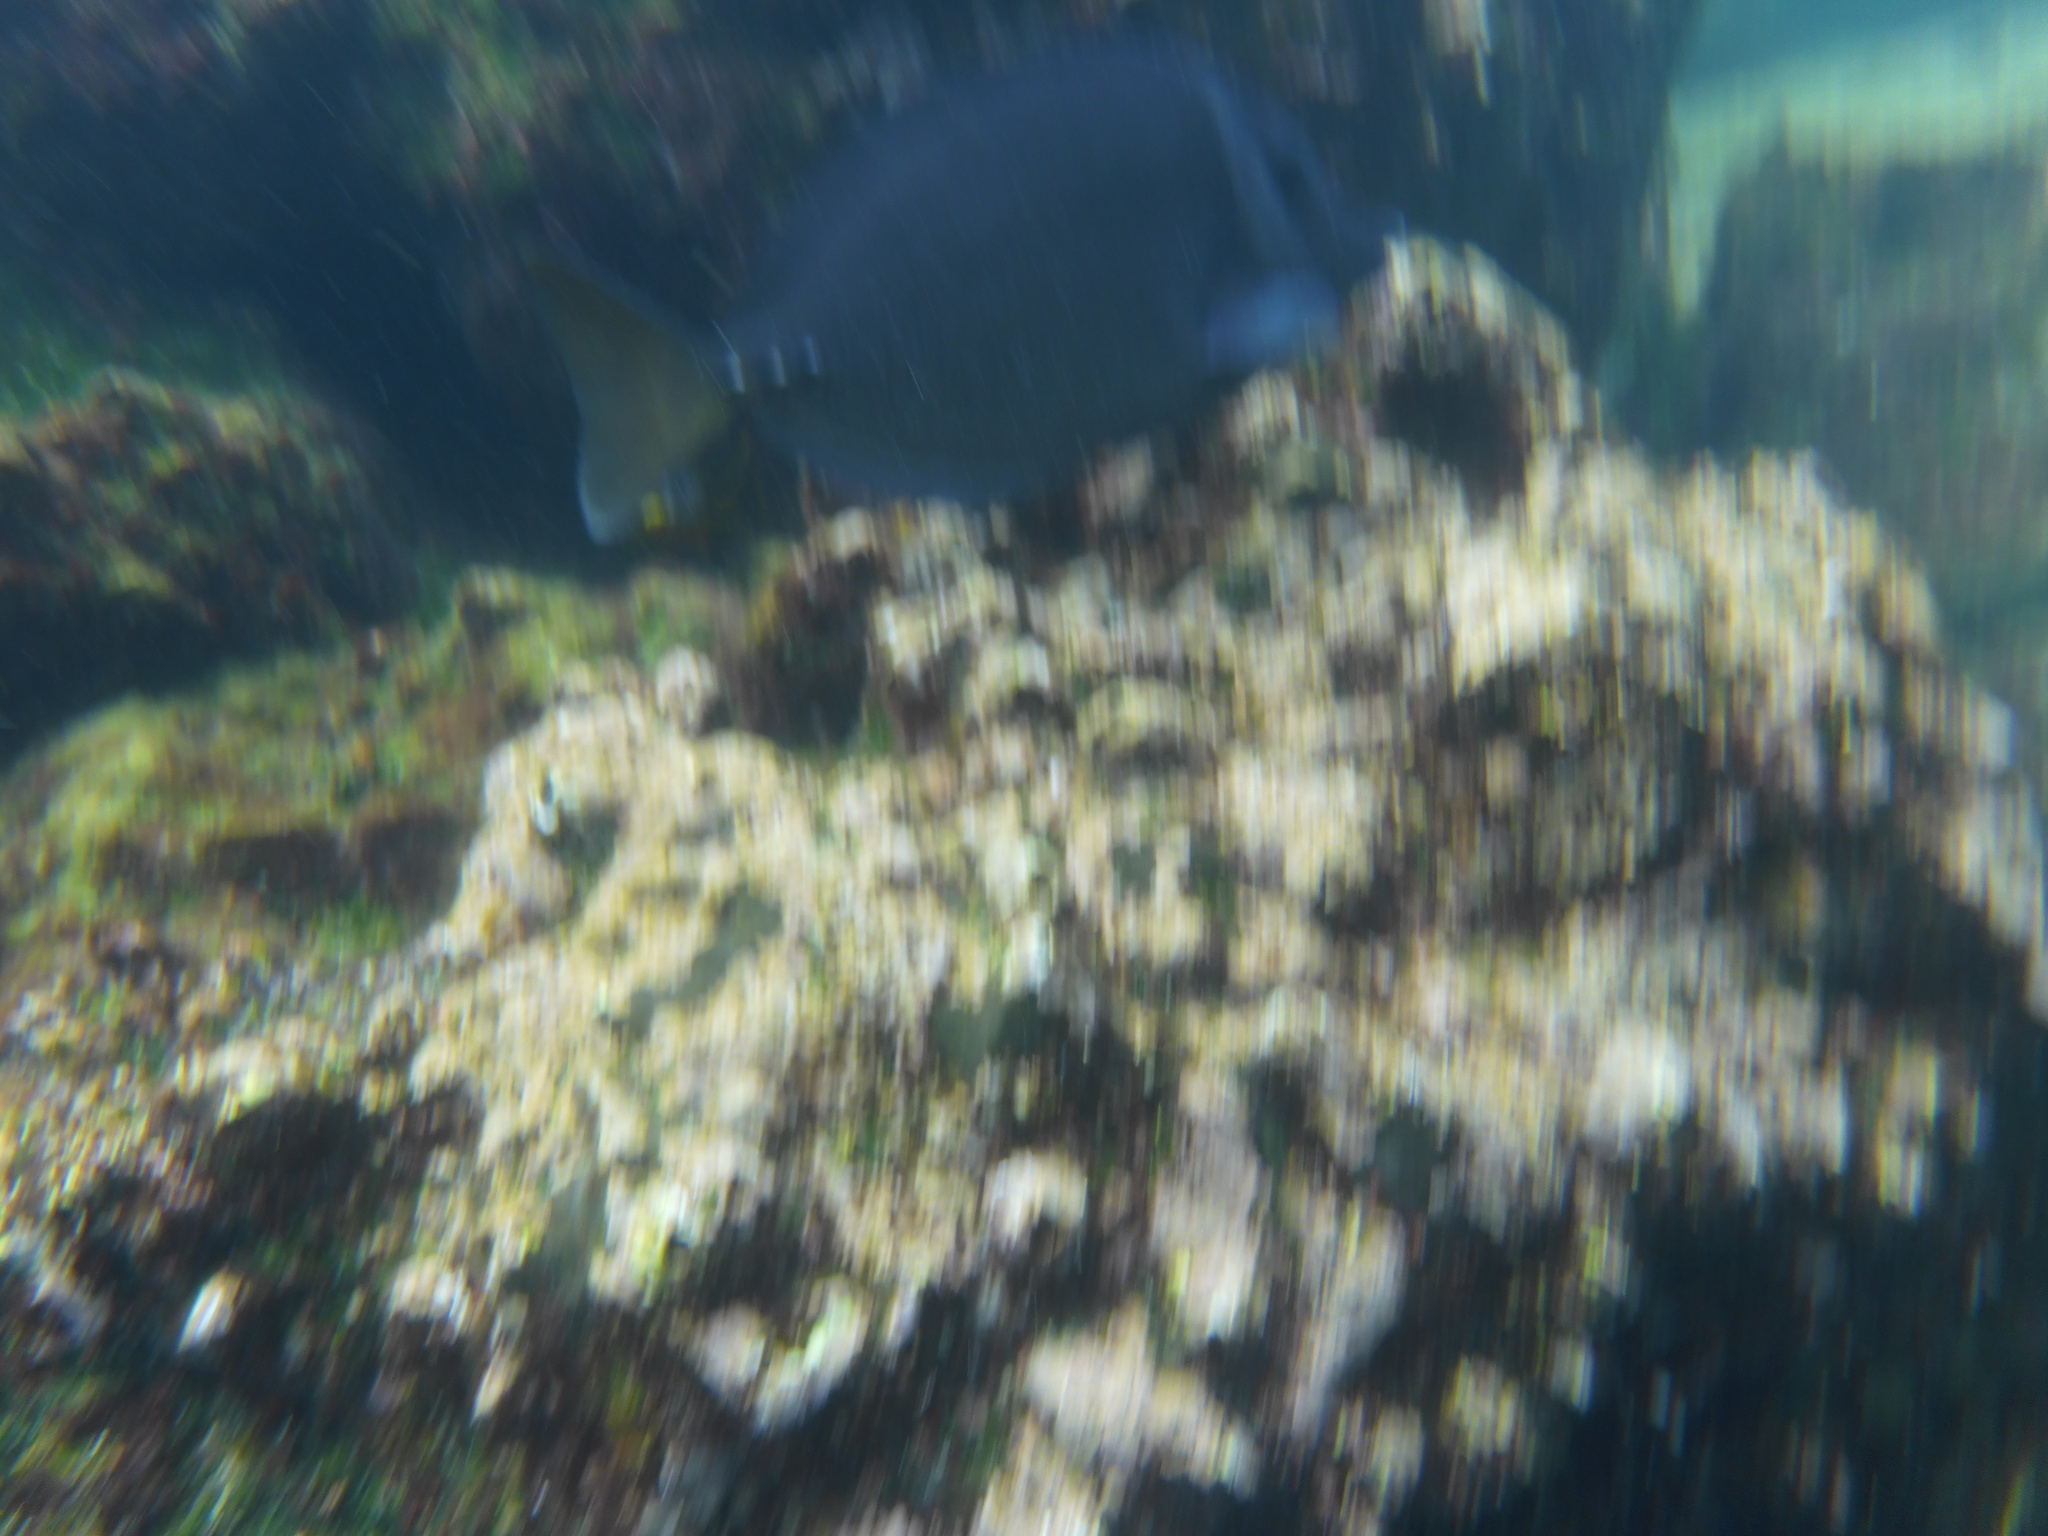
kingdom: Animalia
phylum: Chordata
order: Perciformes
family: Acanthuridae
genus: Prionurus
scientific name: Prionurus laticlavius
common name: Razor surgeonfish
